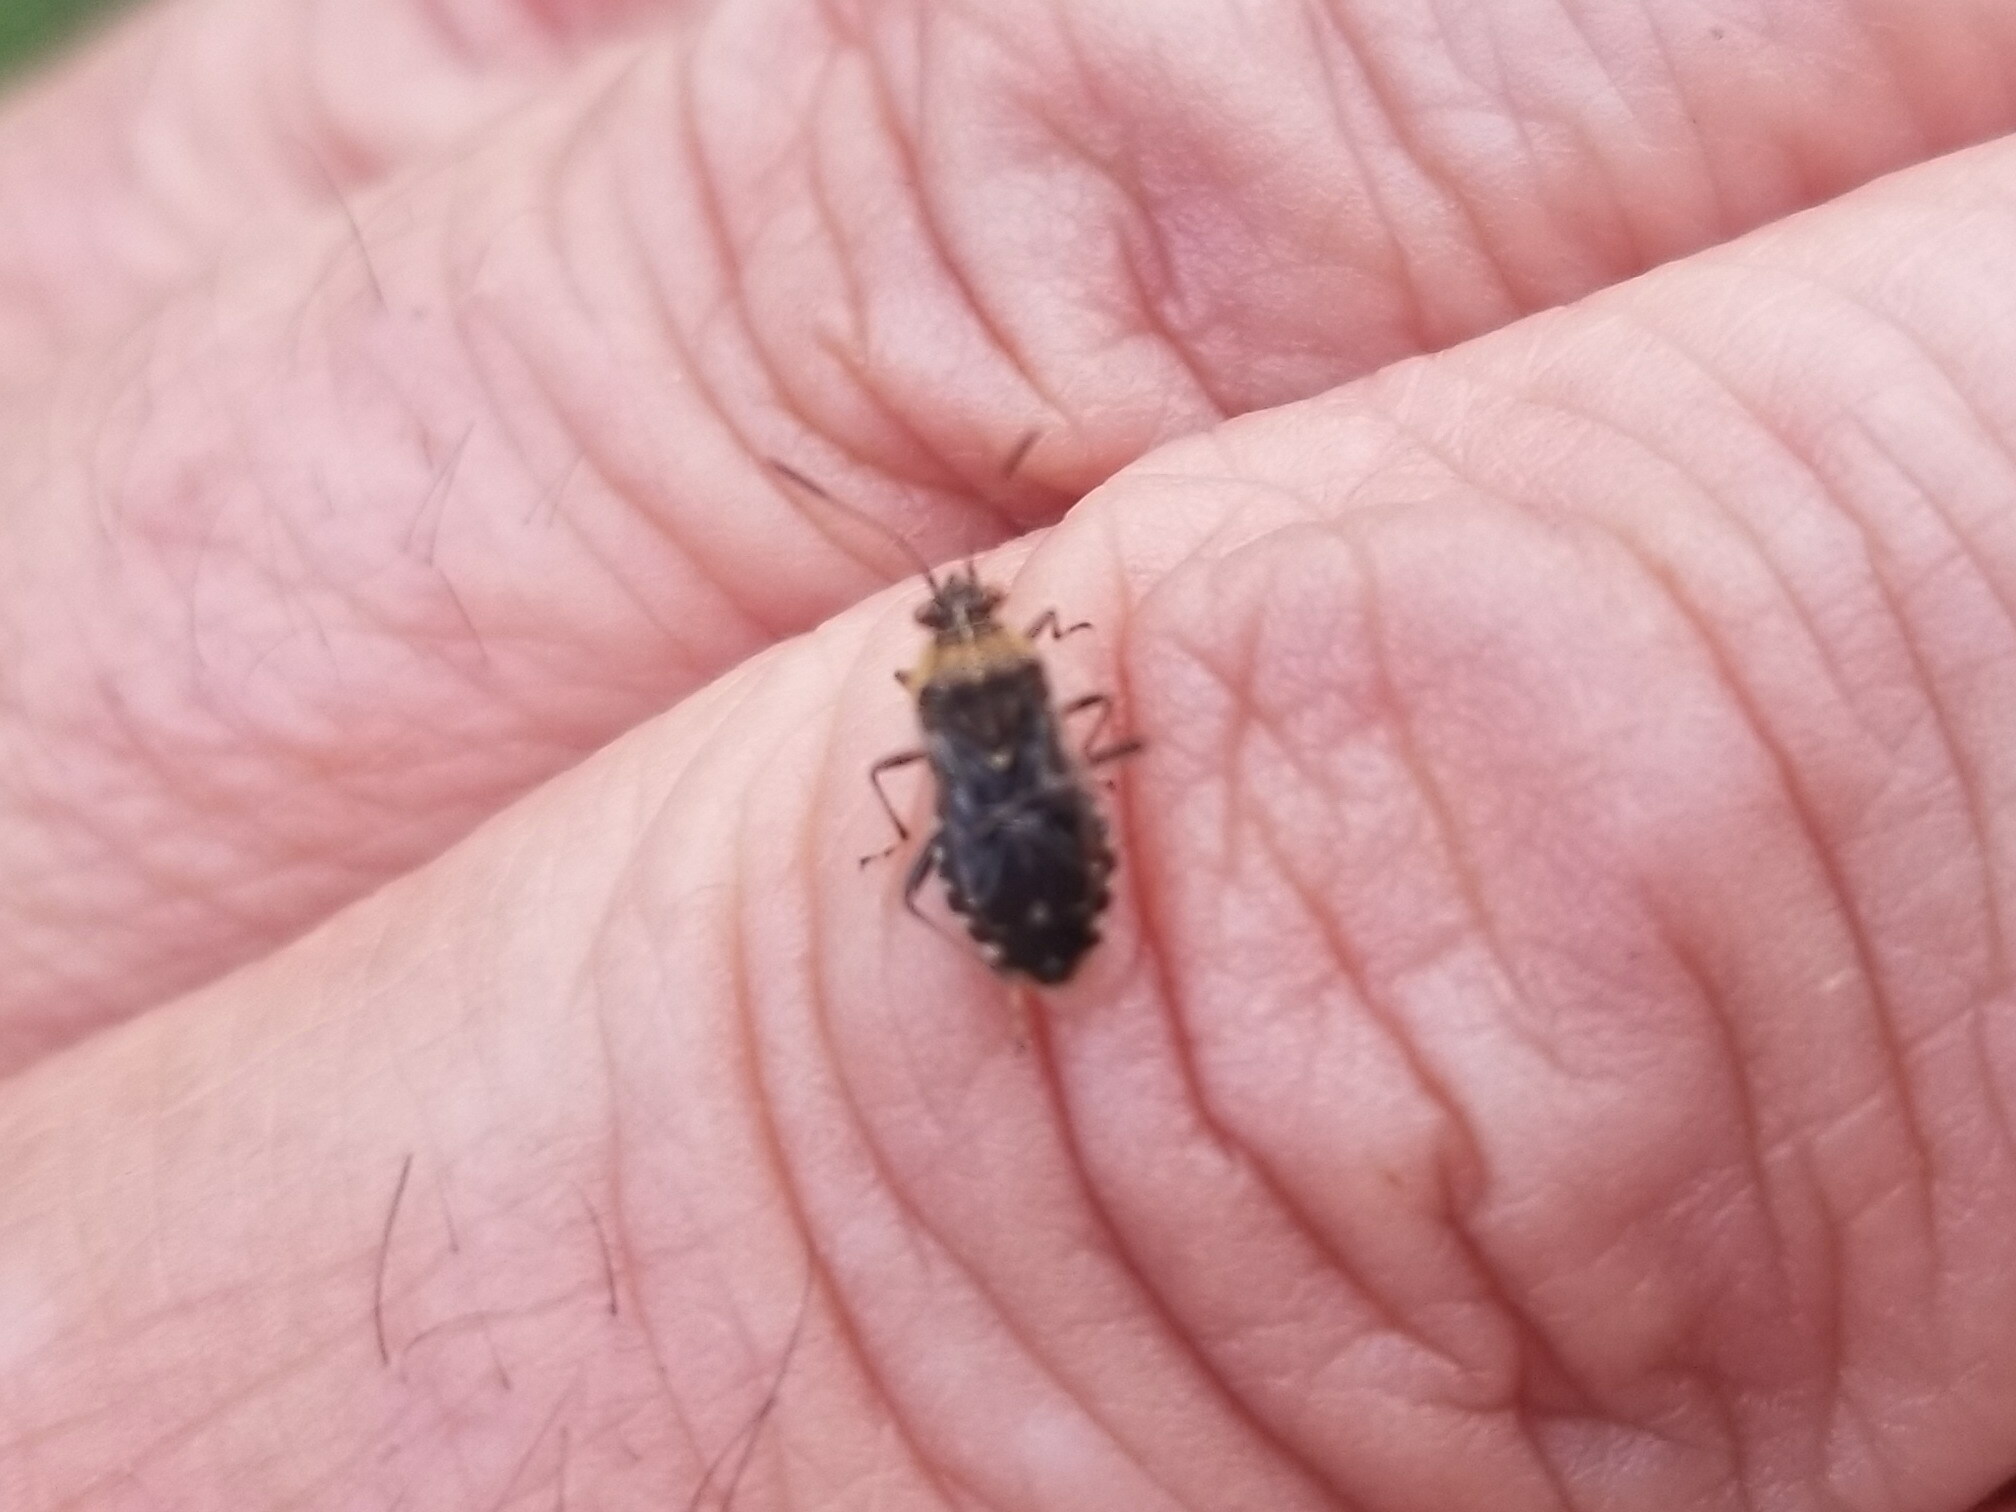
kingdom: Animalia
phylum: Arthropoda
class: Insecta
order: Hemiptera
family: Rhopalidae
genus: Liorhyssus
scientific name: Liorhyssus hyalinus
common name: Scentless plant bug
